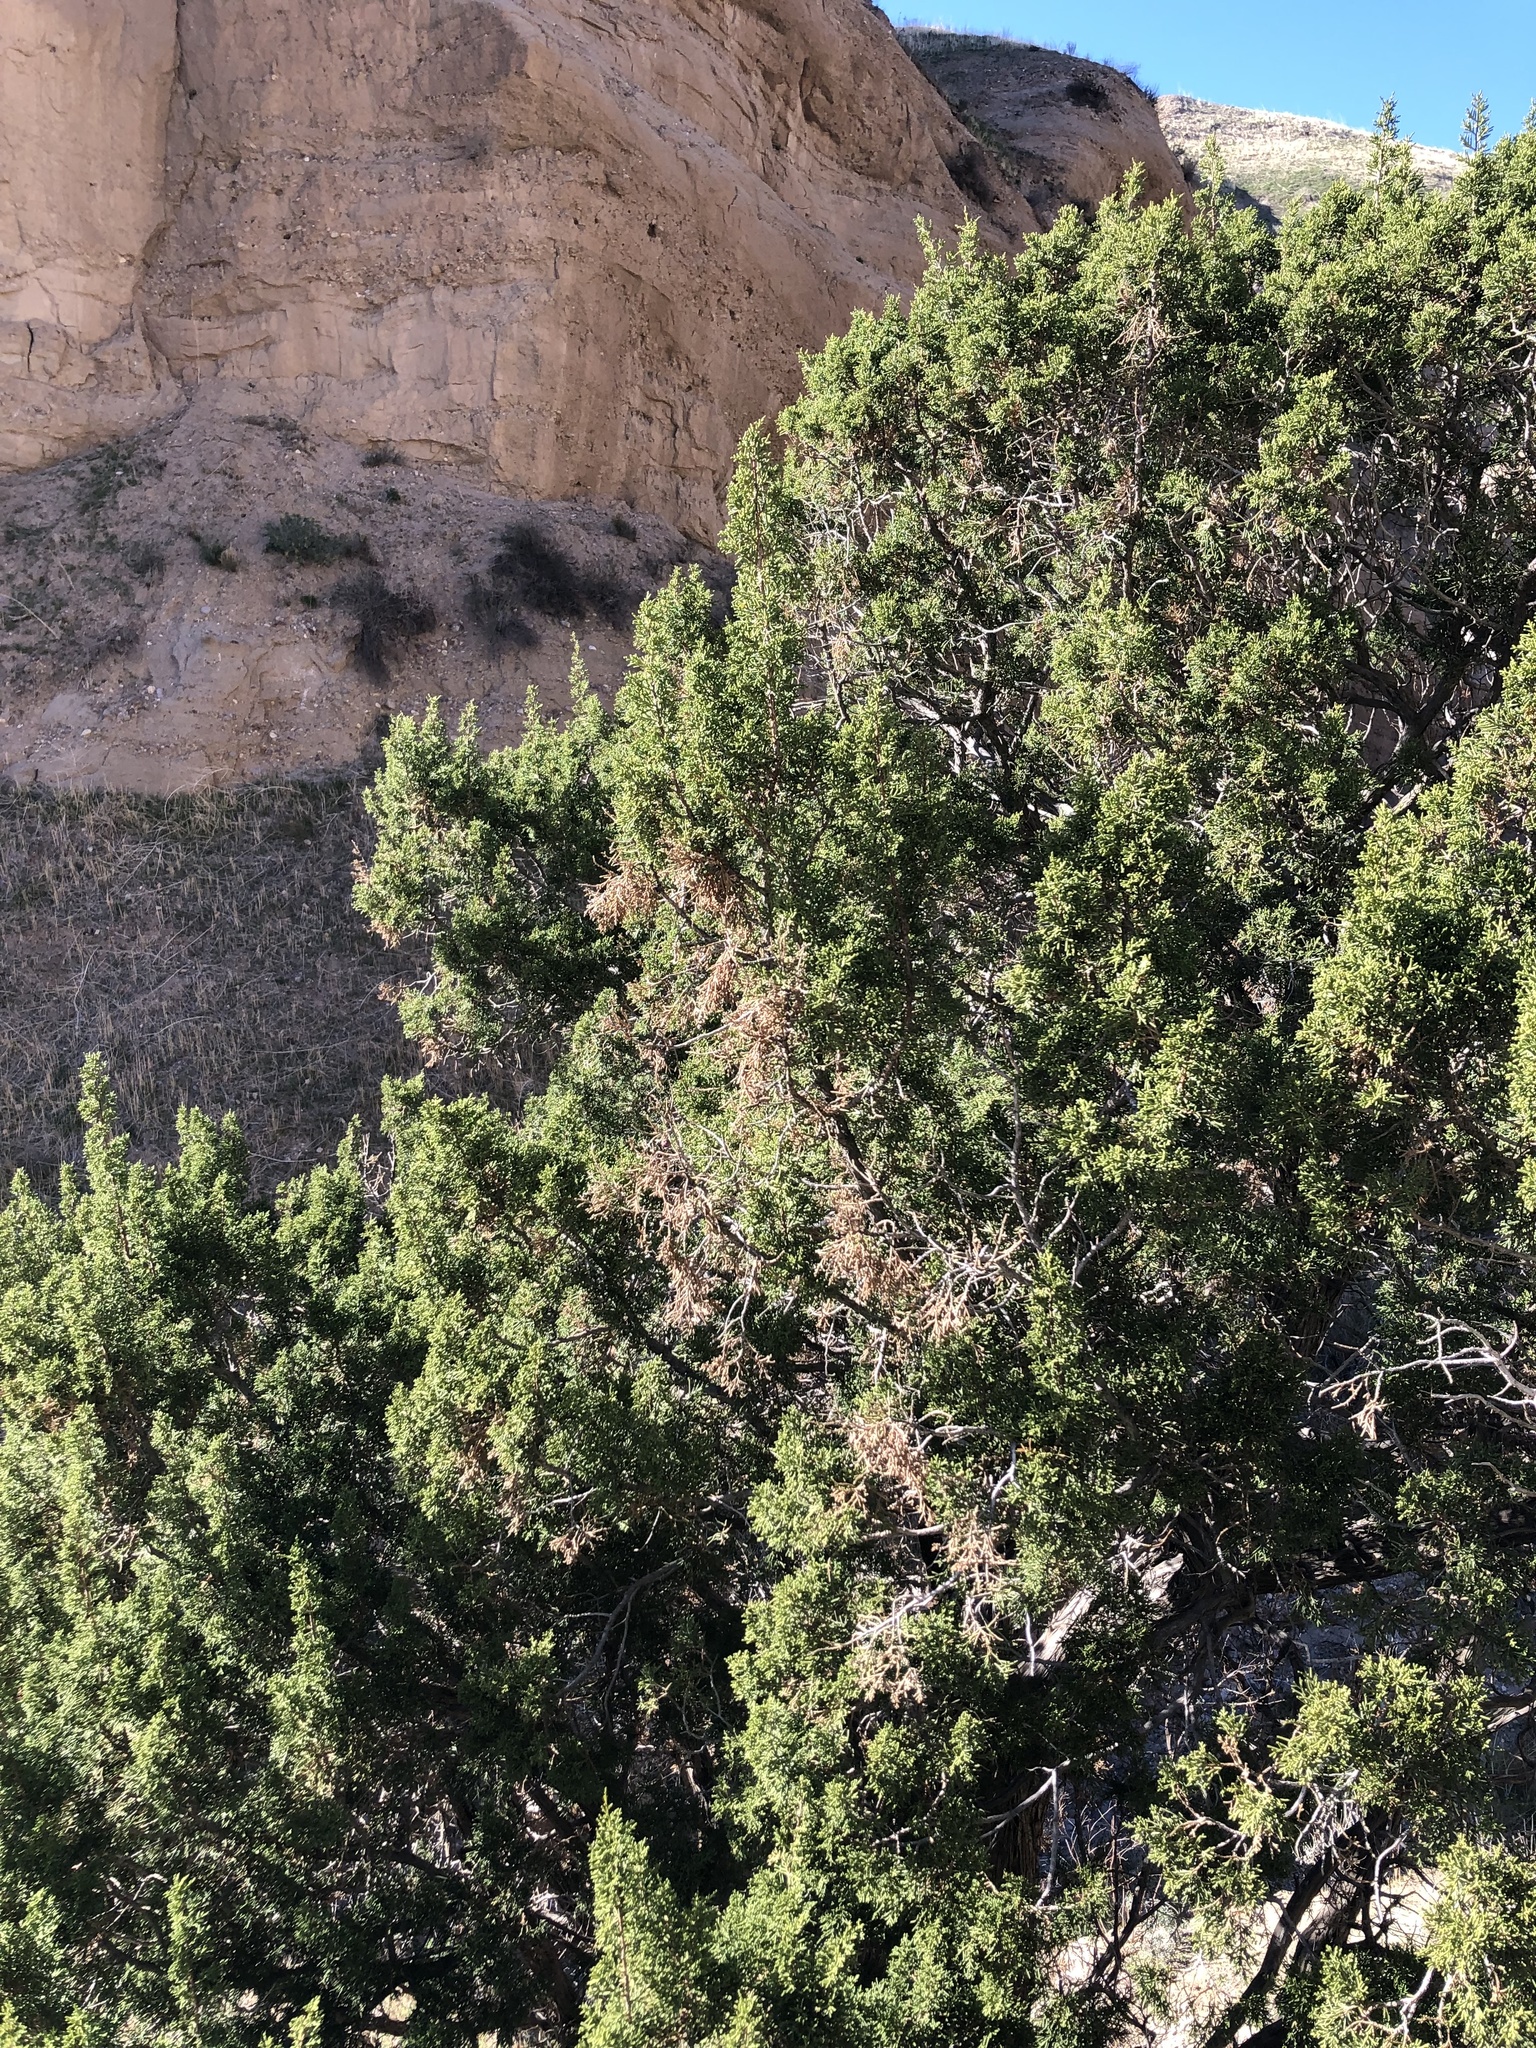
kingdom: Plantae
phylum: Tracheophyta
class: Pinopsida
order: Pinales
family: Cupressaceae
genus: Juniperus
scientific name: Juniperus californica
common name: California juniper
